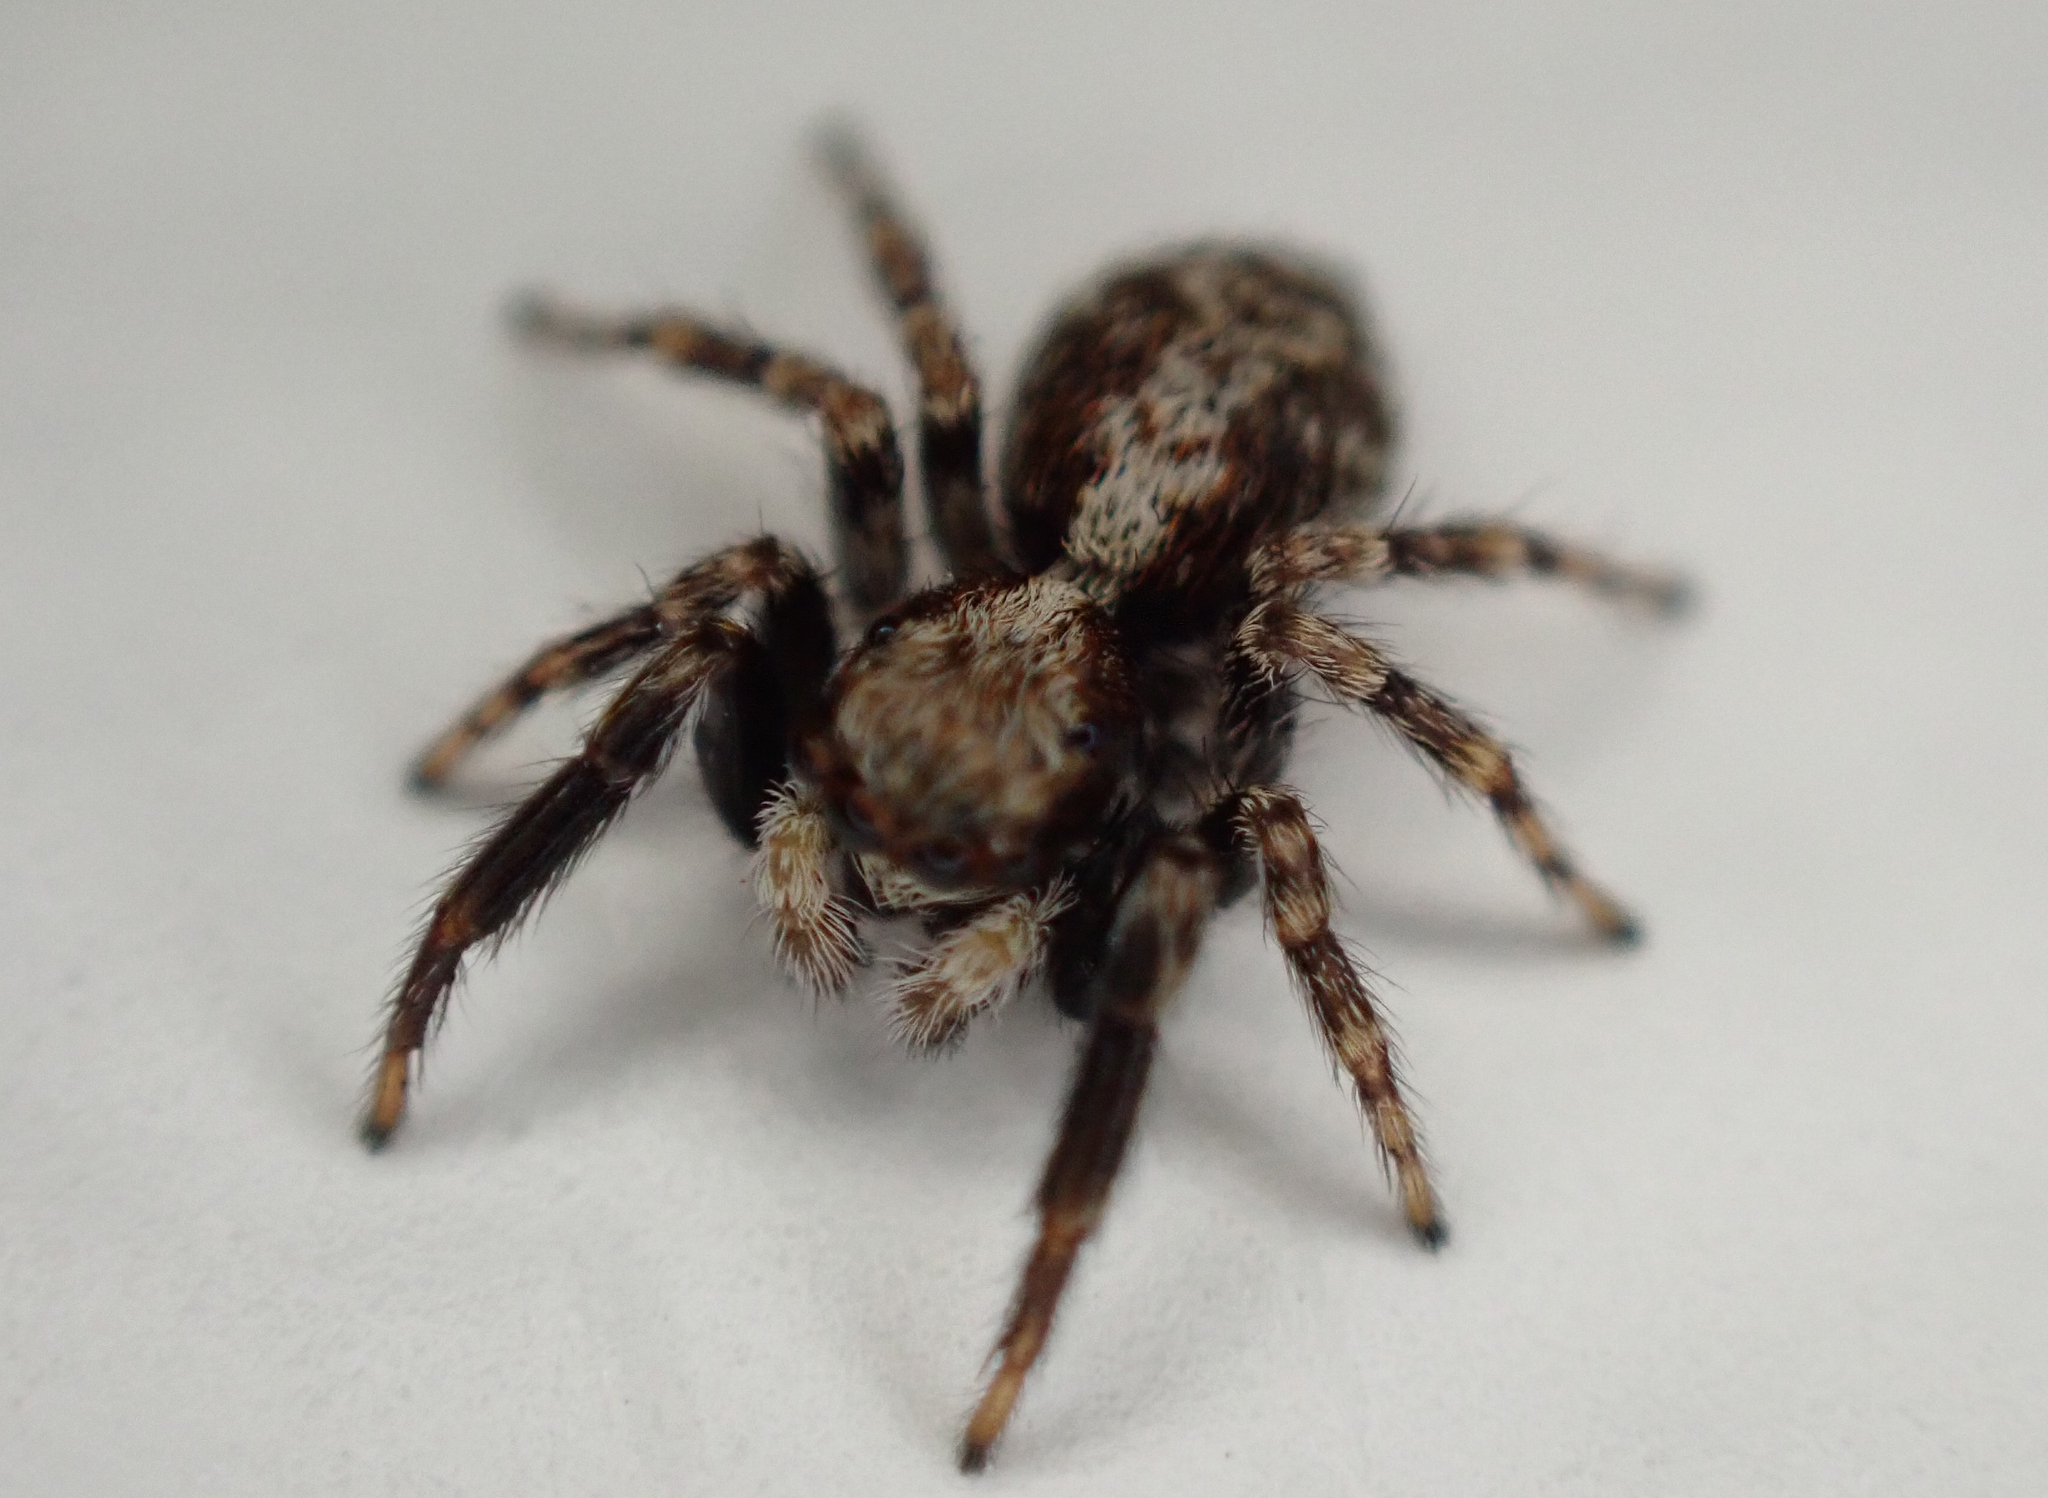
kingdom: Animalia
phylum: Arthropoda
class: Arachnida
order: Araneae
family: Salticidae
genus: Pseudeuophrys
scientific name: Pseudeuophrys lanigera
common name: Jumping spider
